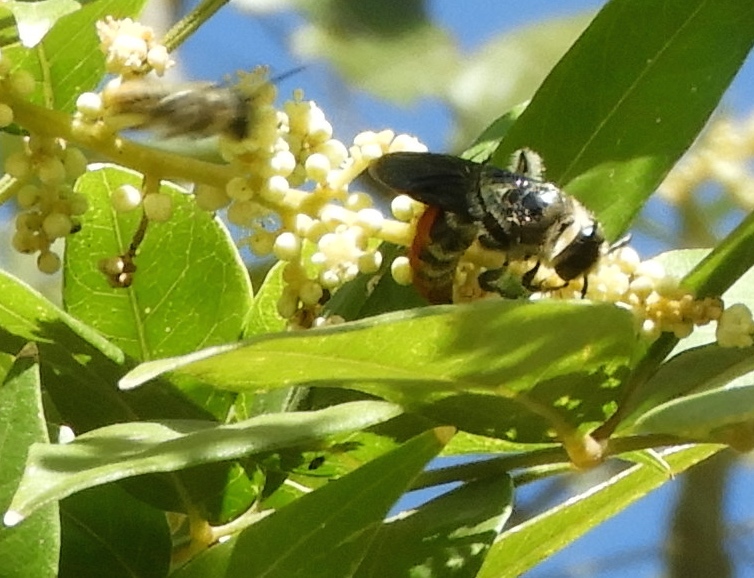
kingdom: Animalia
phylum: Arthropoda
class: Insecta
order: Hymenoptera
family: Scoliidae
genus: Dielis
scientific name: Dielis tolteca
